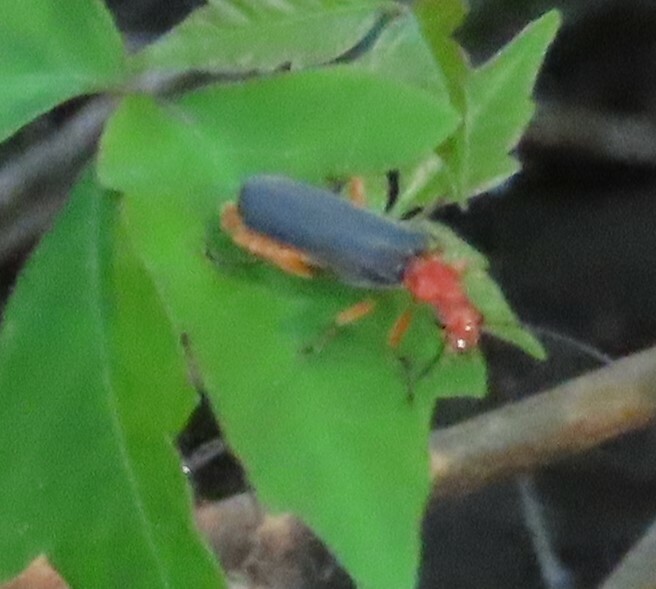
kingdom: Animalia
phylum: Arthropoda
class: Insecta
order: Coleoptera
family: Cantharidae
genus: Podabrus
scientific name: Podabrus tomentosus
